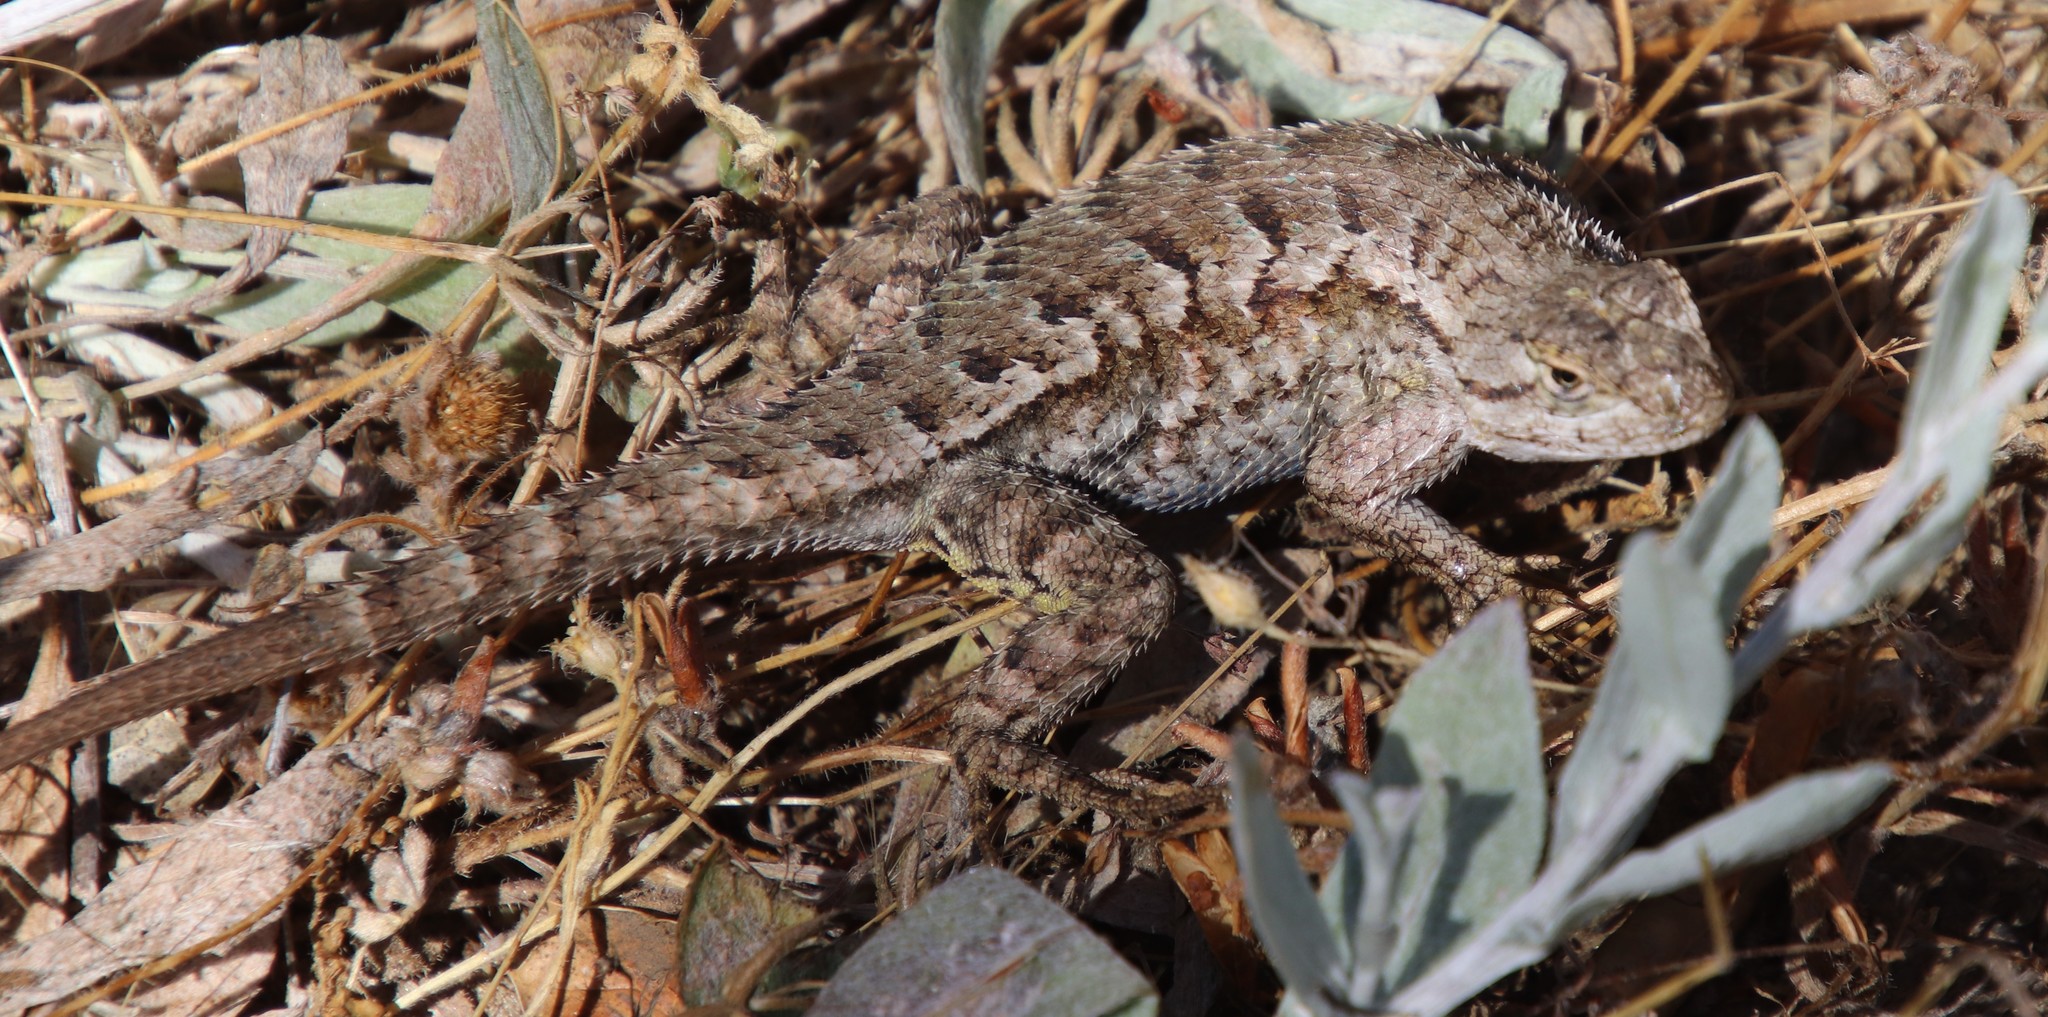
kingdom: Animalia
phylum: Chordata
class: Squamata
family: Phrynosomatidae
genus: Sceloporus
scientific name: Sceloporus occidentalis
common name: Western fence lizard
